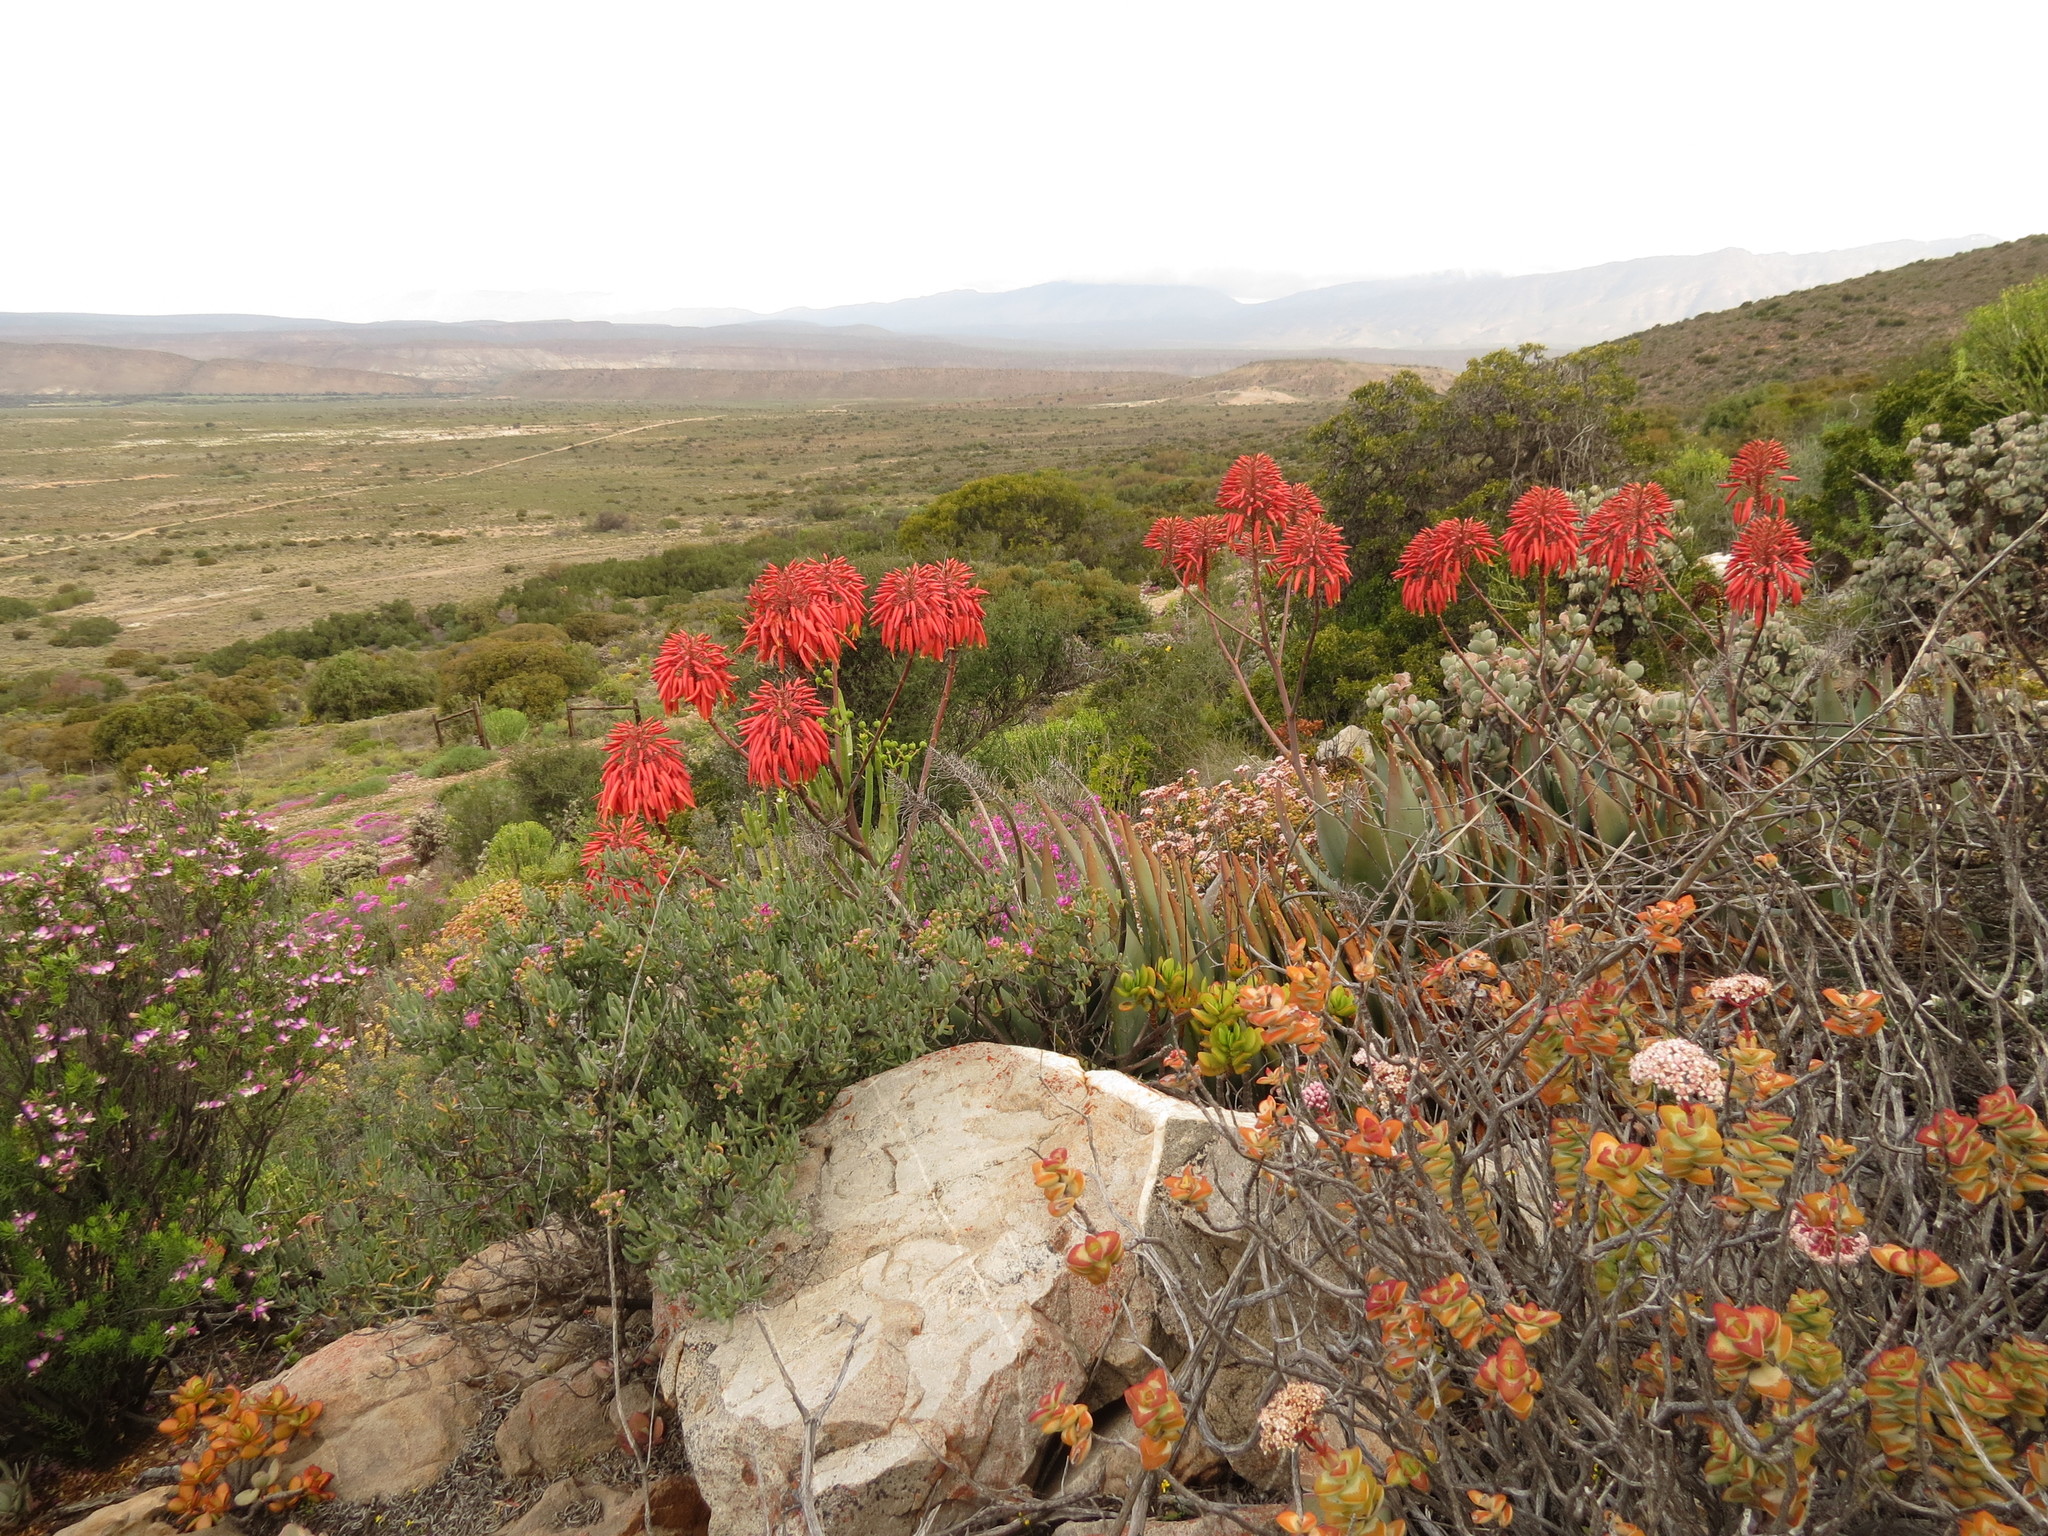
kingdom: Plantae
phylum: Tracheophyta
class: Liliopsida
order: Asparagales
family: Asphodelaceae
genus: Aloe
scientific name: Aloe comptonii
